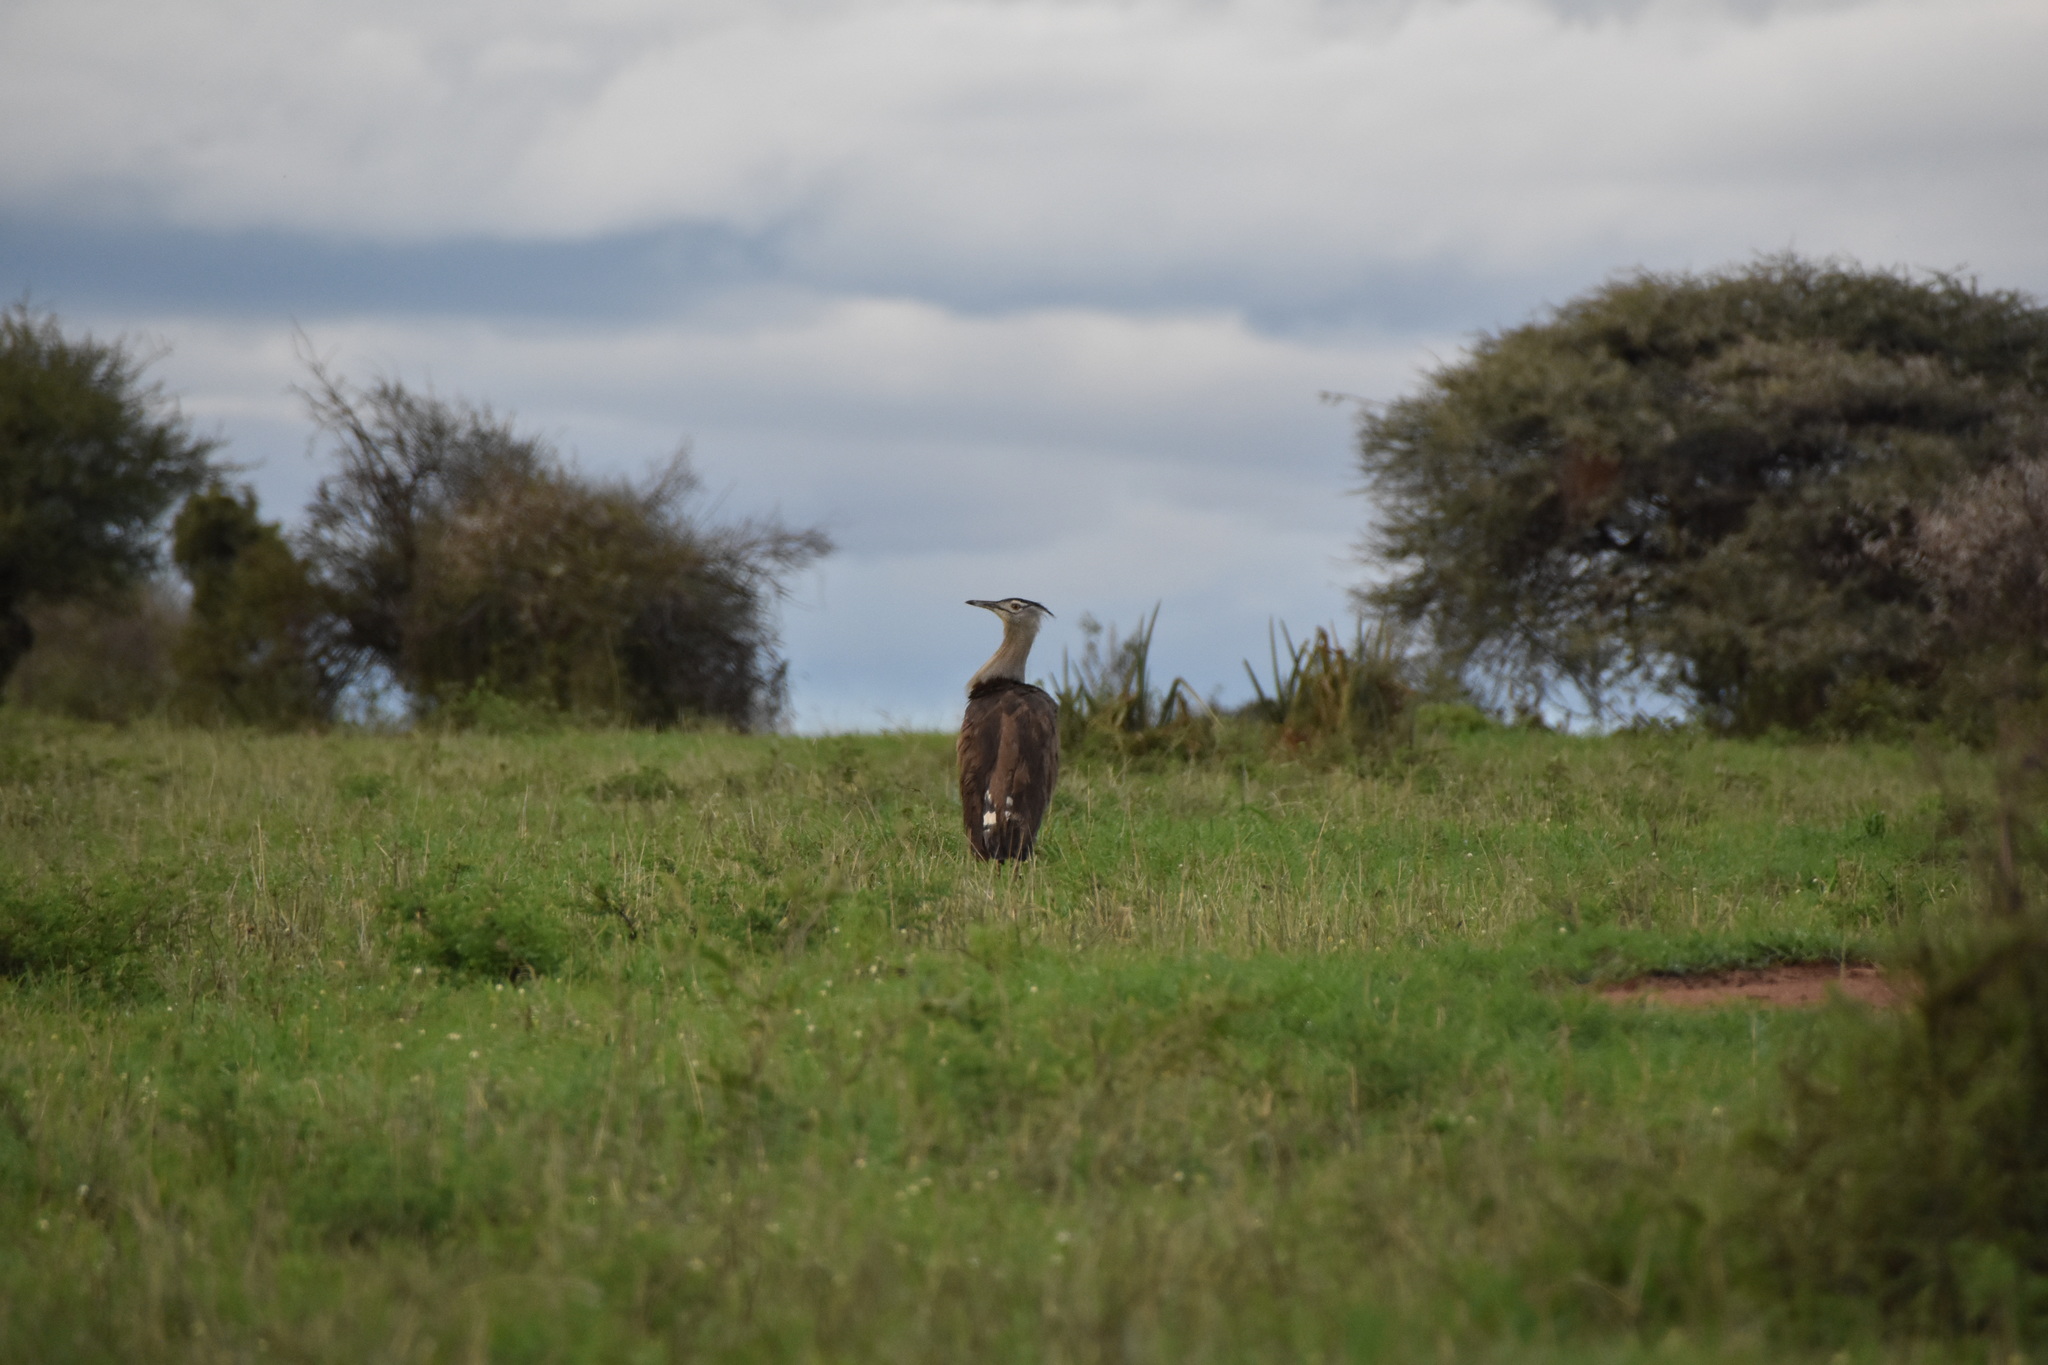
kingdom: Animalia
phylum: Chordata
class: Aves
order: Otidiformes
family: Otididae
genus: Ardeotis
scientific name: Ardeotis kori
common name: Kori bustard
